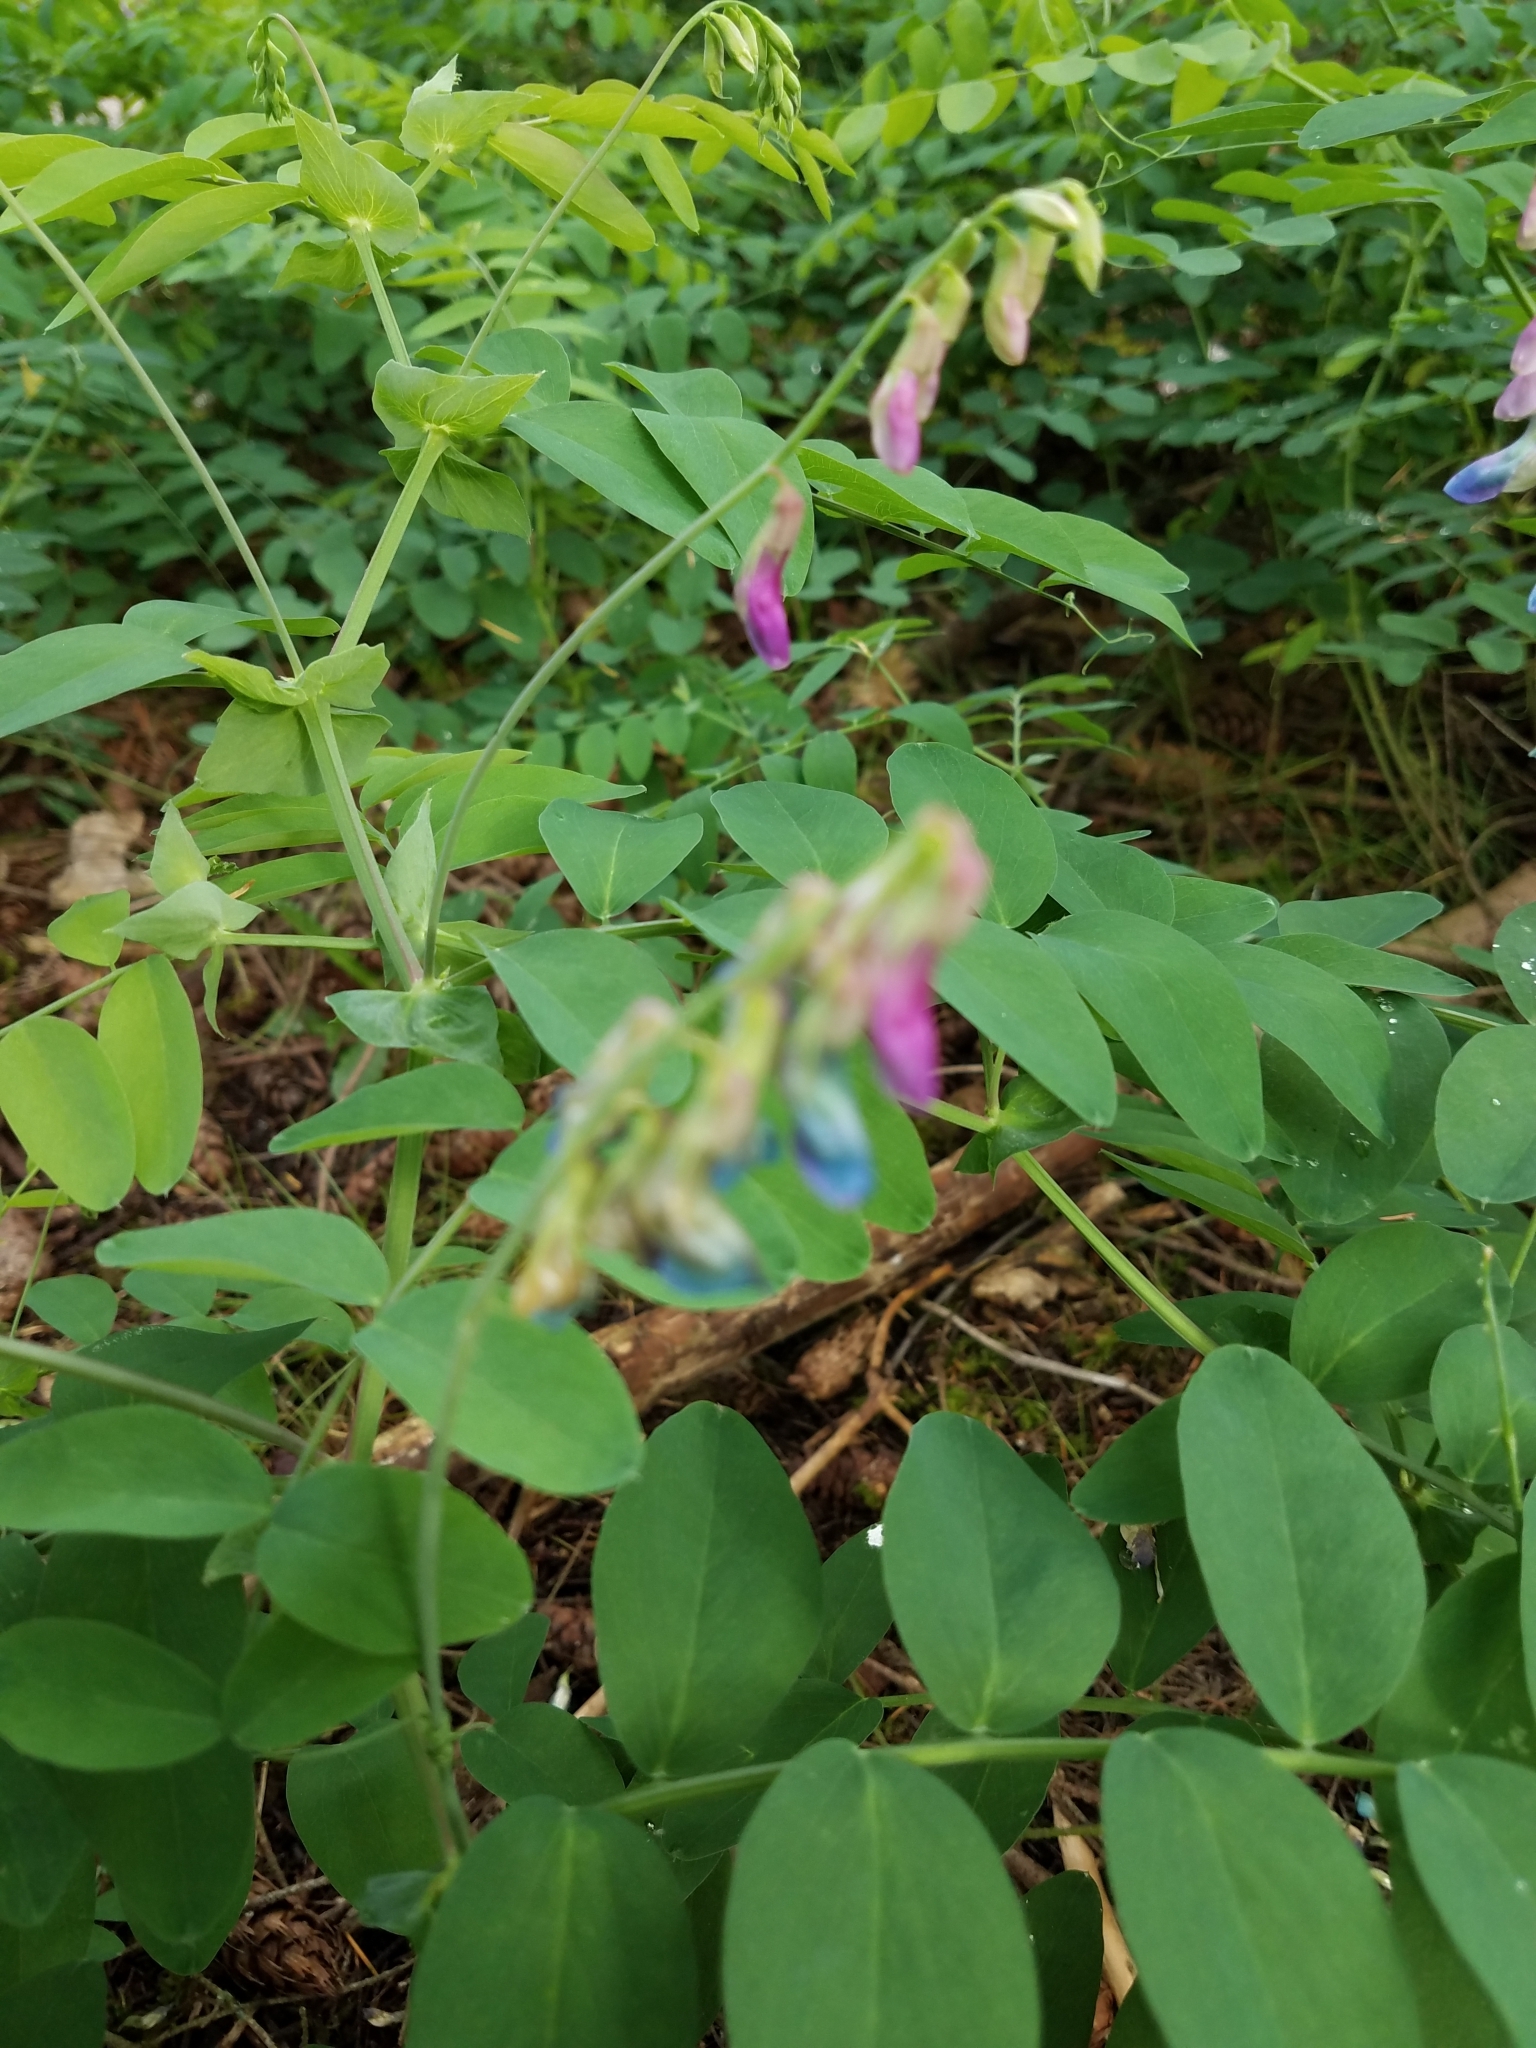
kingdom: Plantae
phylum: Tracheophyta
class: Magnoliopsida
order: Fabales
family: Fabaceae
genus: Lathyrus
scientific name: Lathyrus polyphyllus
